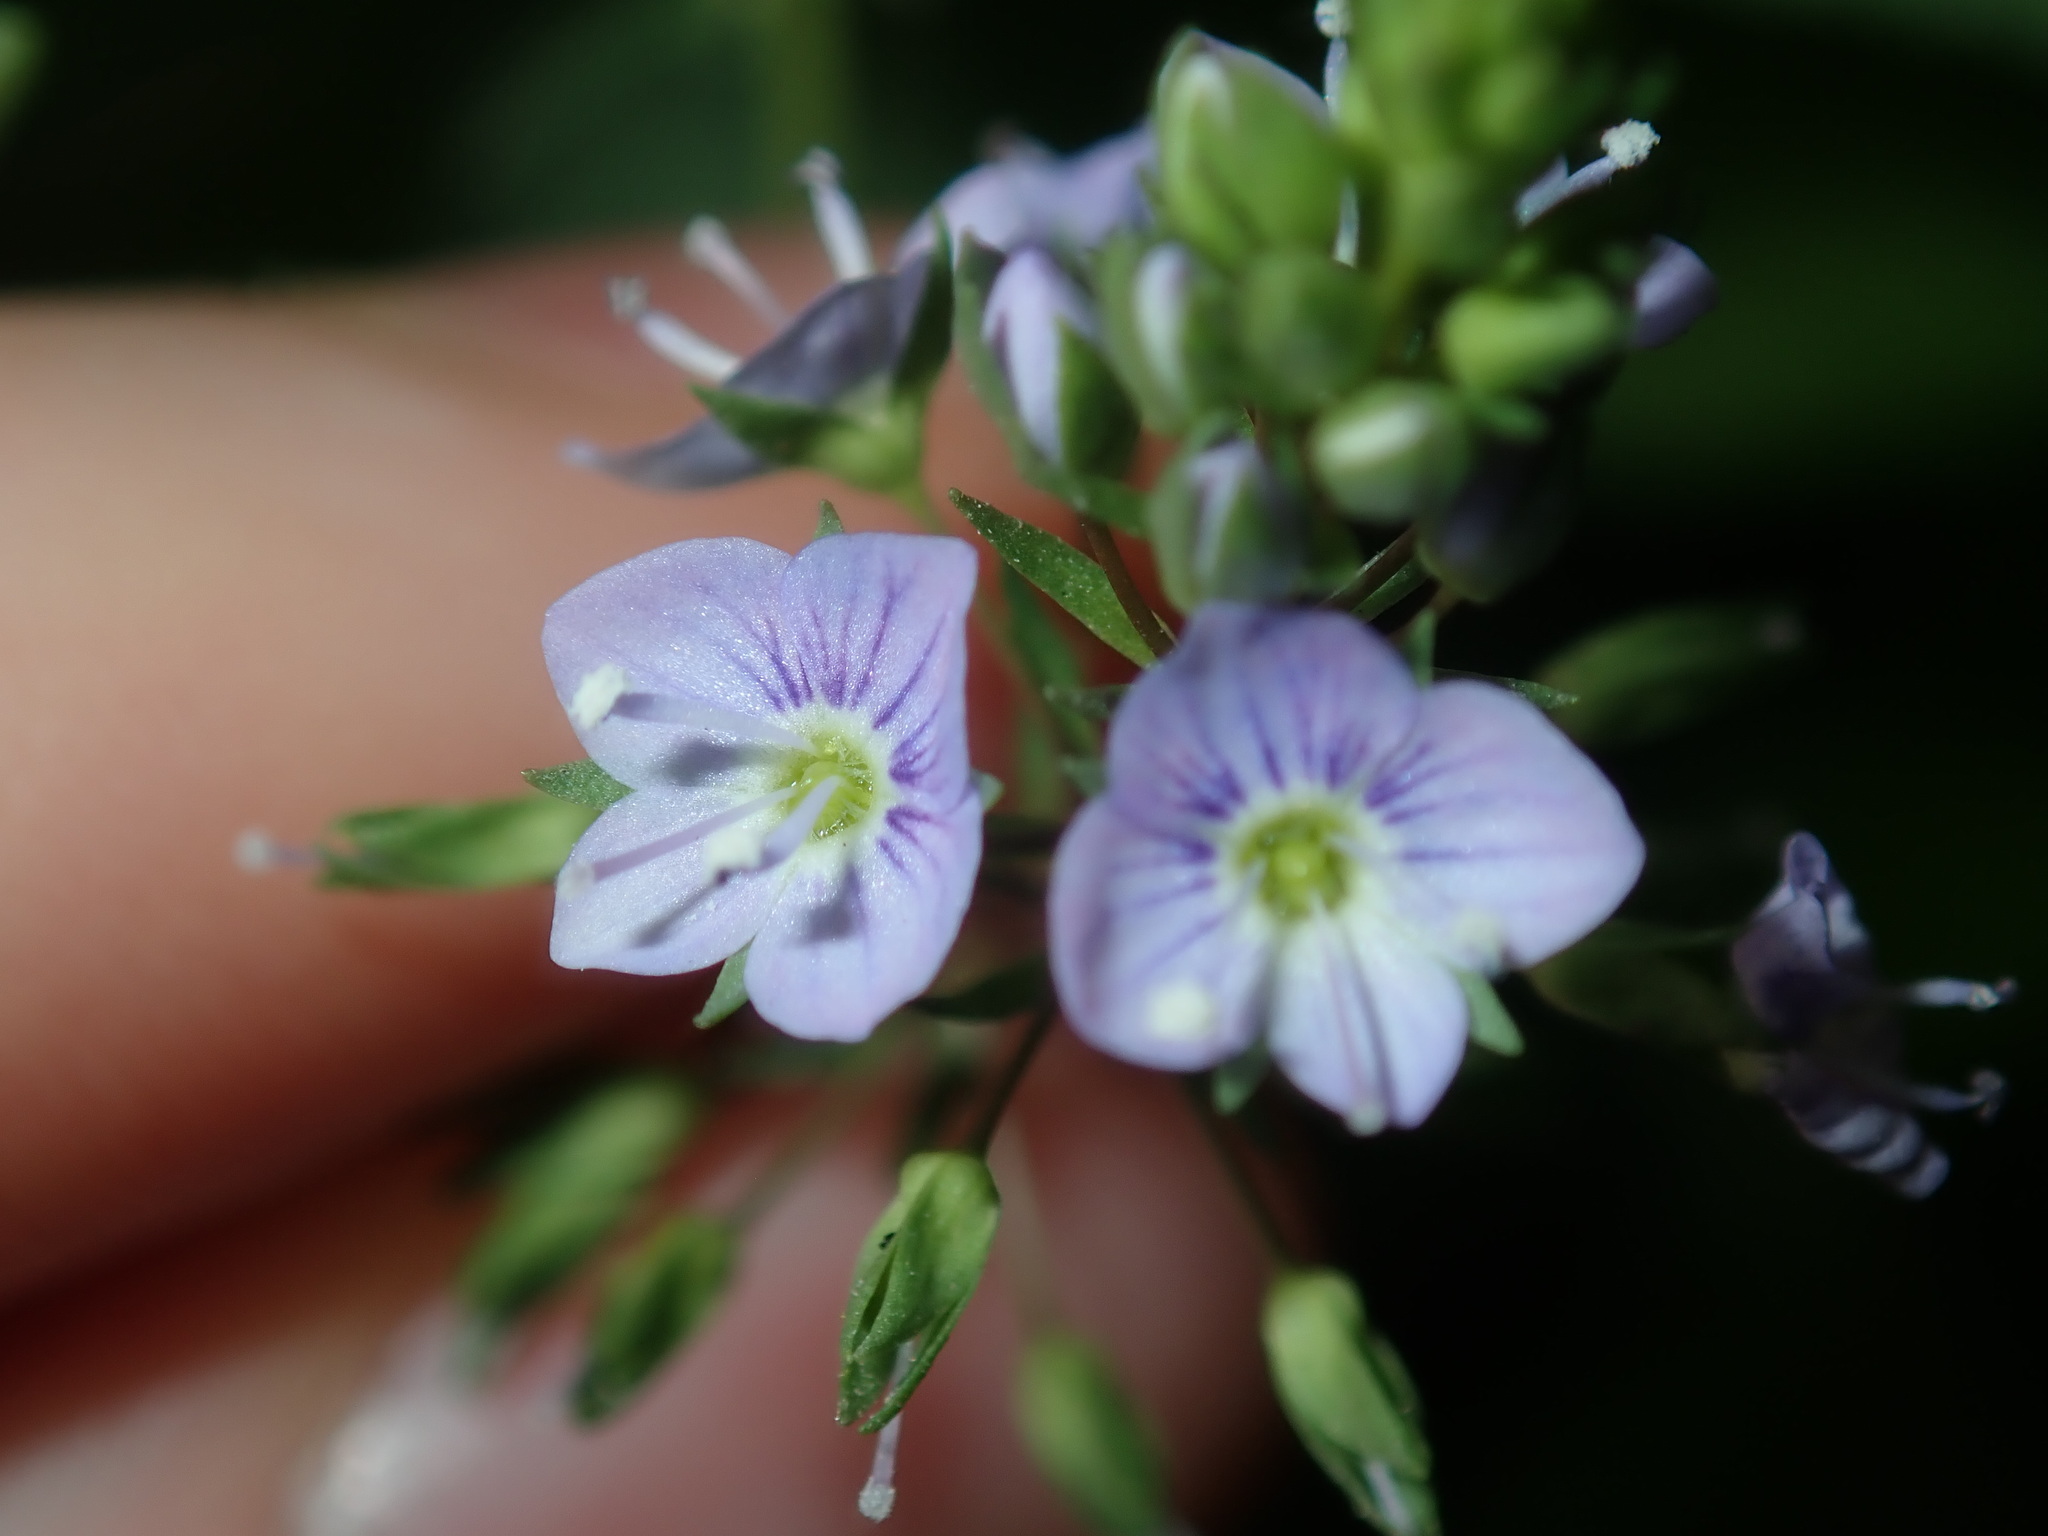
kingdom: Plantae
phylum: Tracheophyta
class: Magnoliopsida
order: Lamiales
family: Plantaginaceae
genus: Veronica
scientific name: Veronica anagallis-aquatica
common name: Water speedwell
